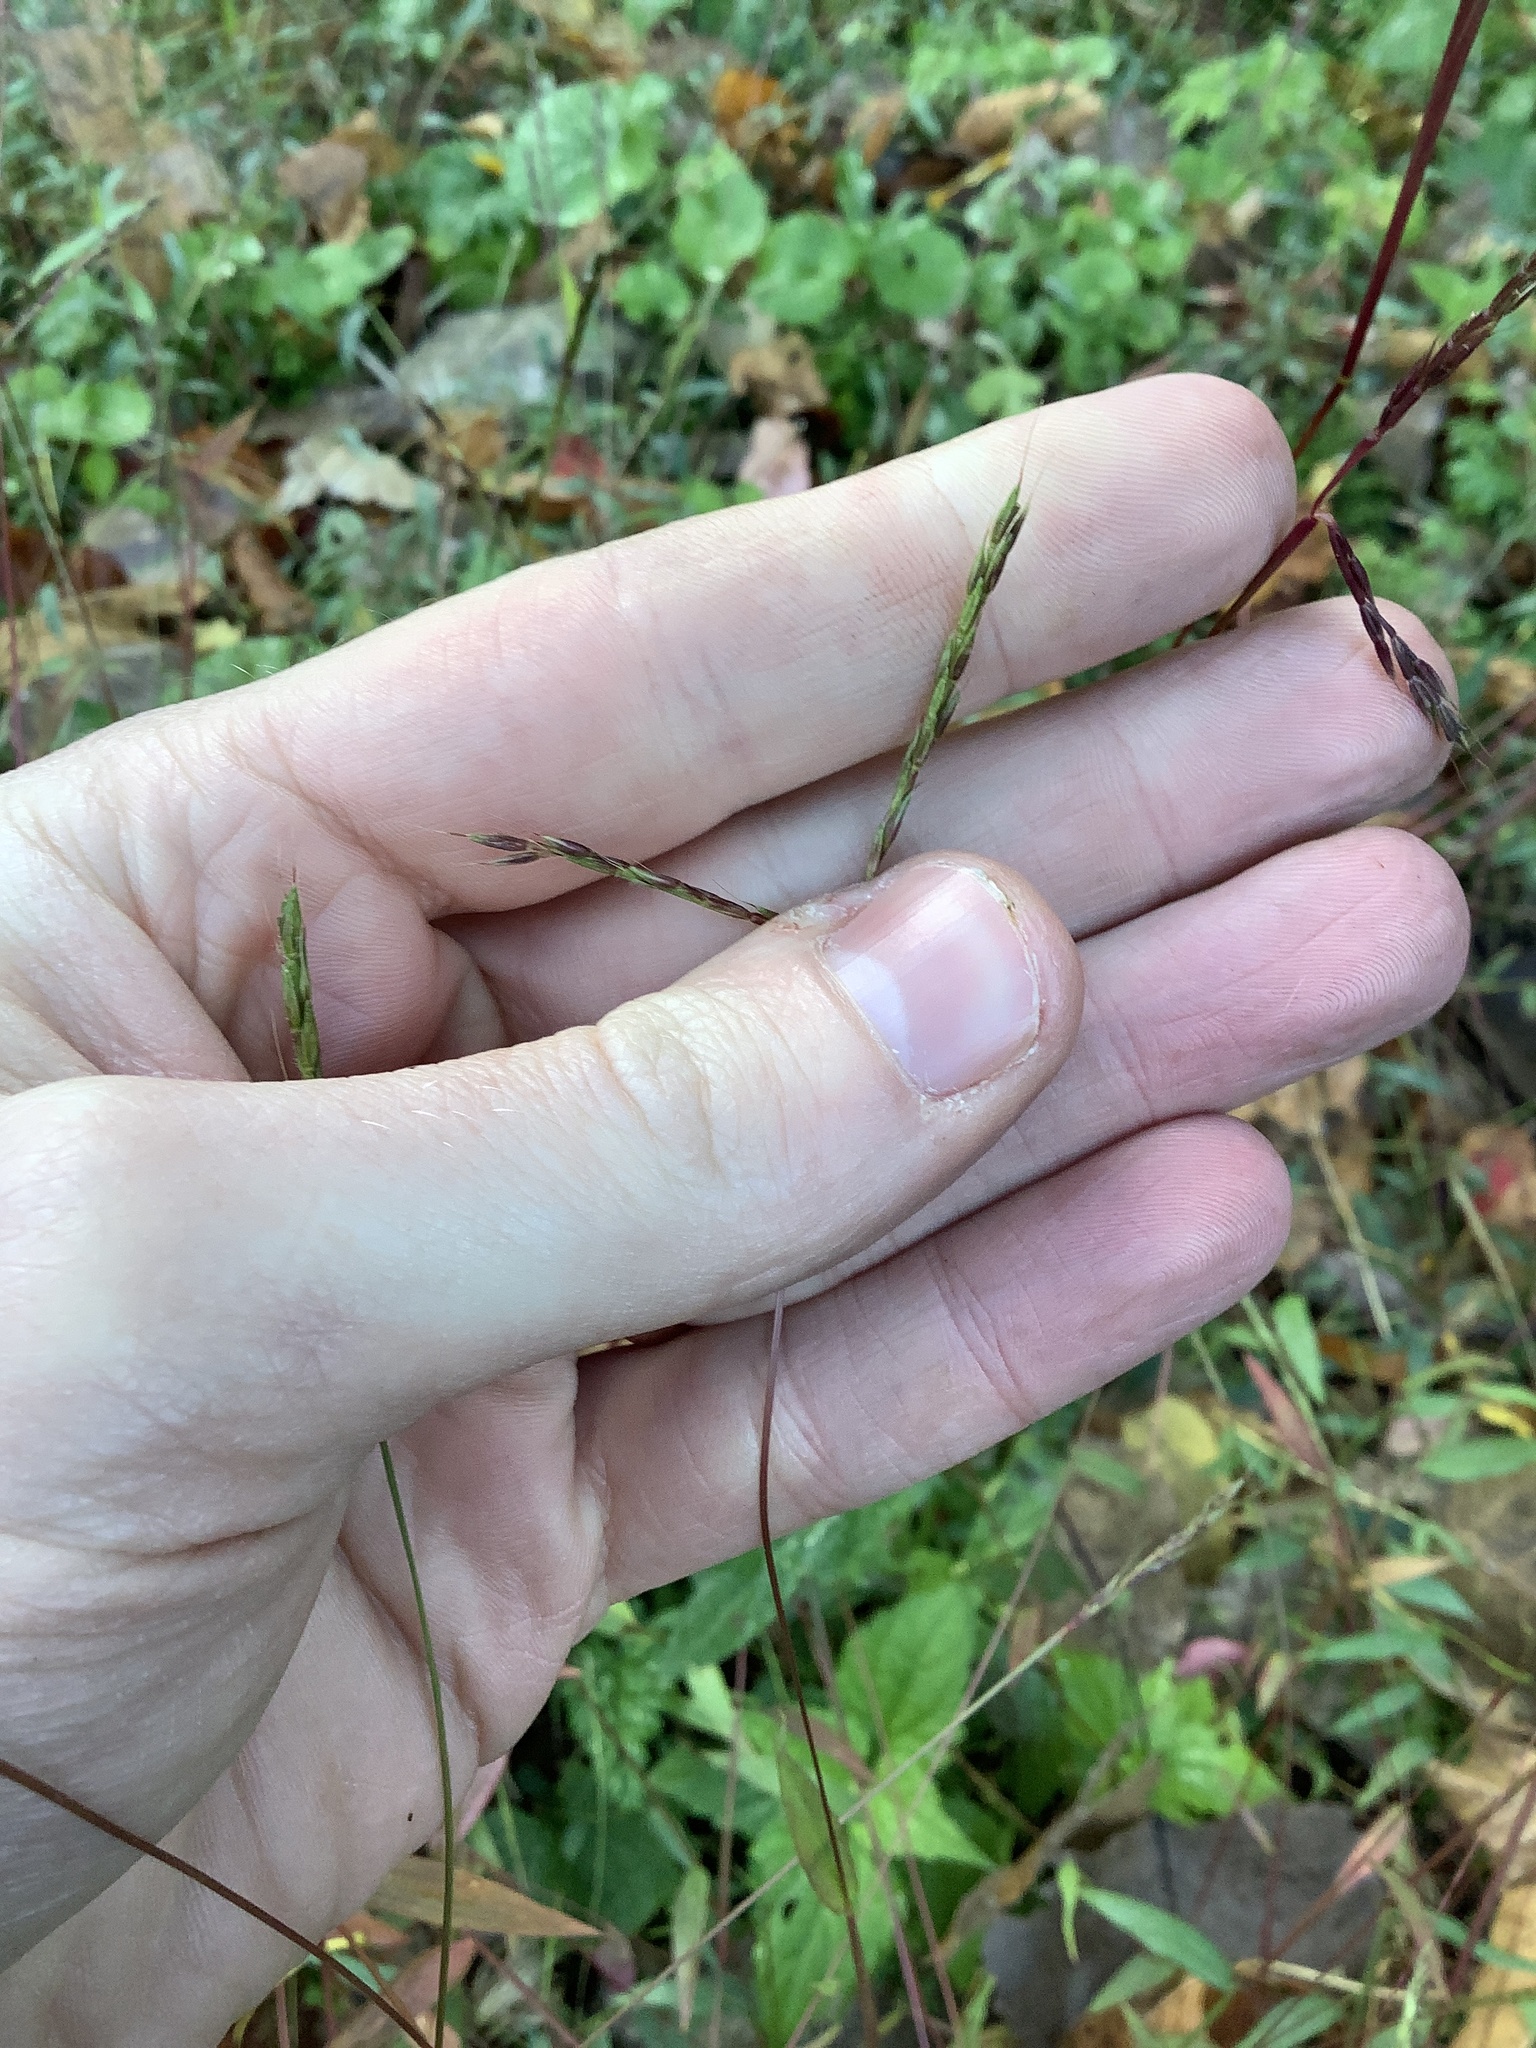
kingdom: Plantae
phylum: Tracheophyta
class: Liliopsida
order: Poales
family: Poaceae
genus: Microstegium
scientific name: Microstegium vimineum
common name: Japanese stiltgrass
